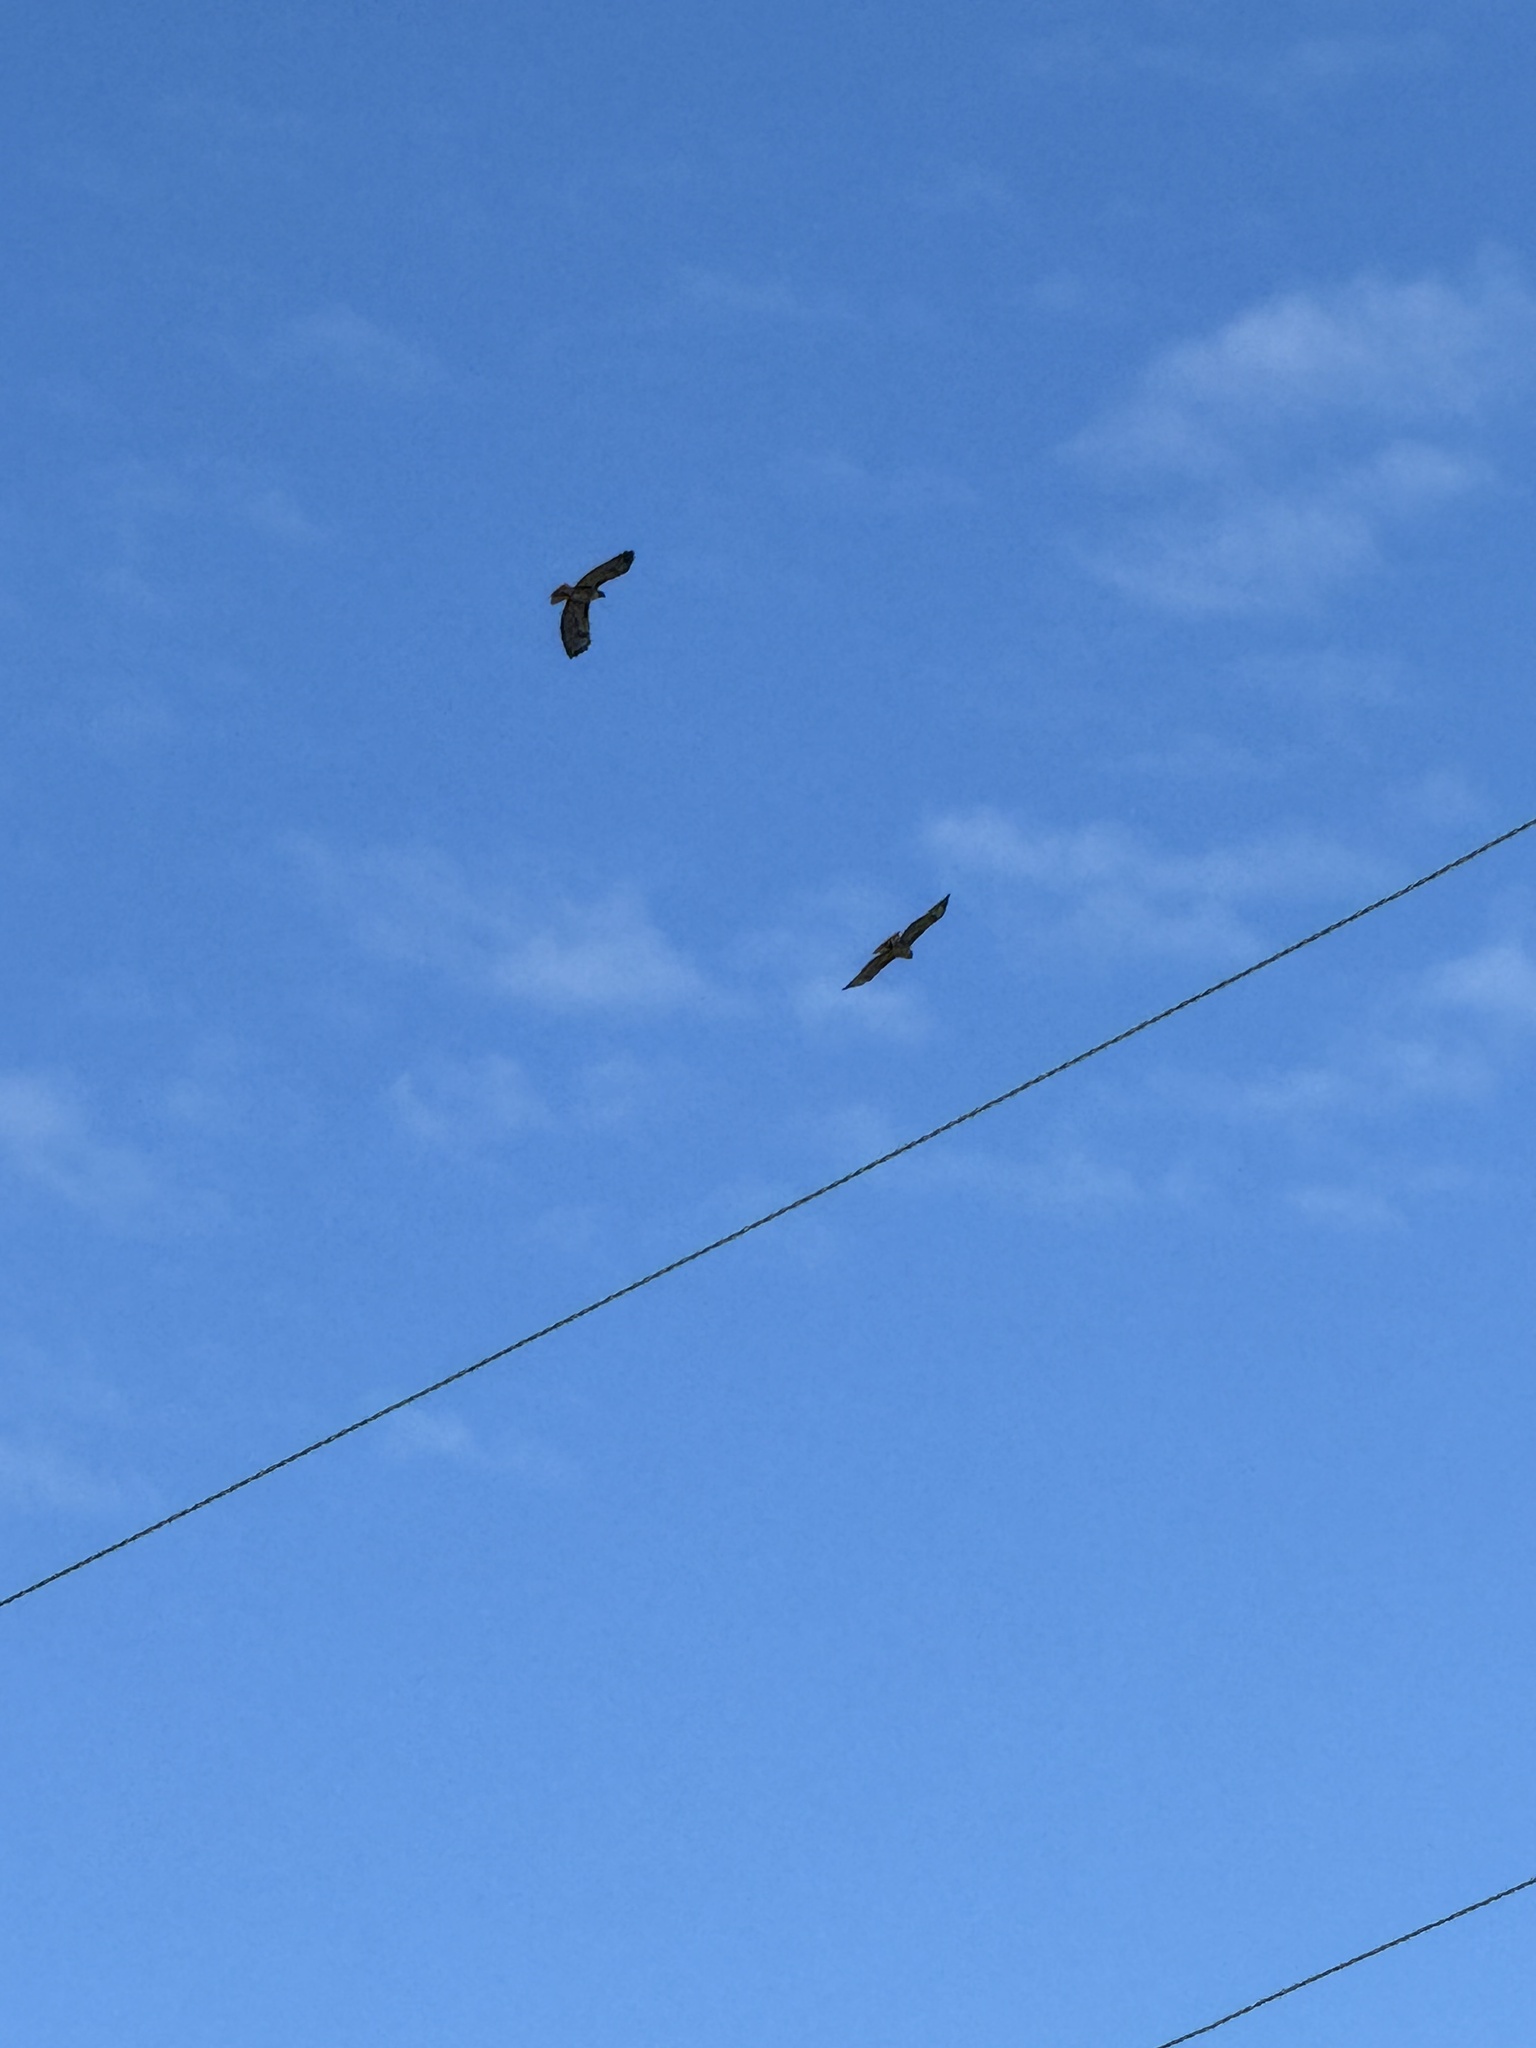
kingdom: Animalia
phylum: Chordata
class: Aves
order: Accipitriformes
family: Accipitridae
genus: Buteo
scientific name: Buteo jamaicensis
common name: Red-tailed hawk
